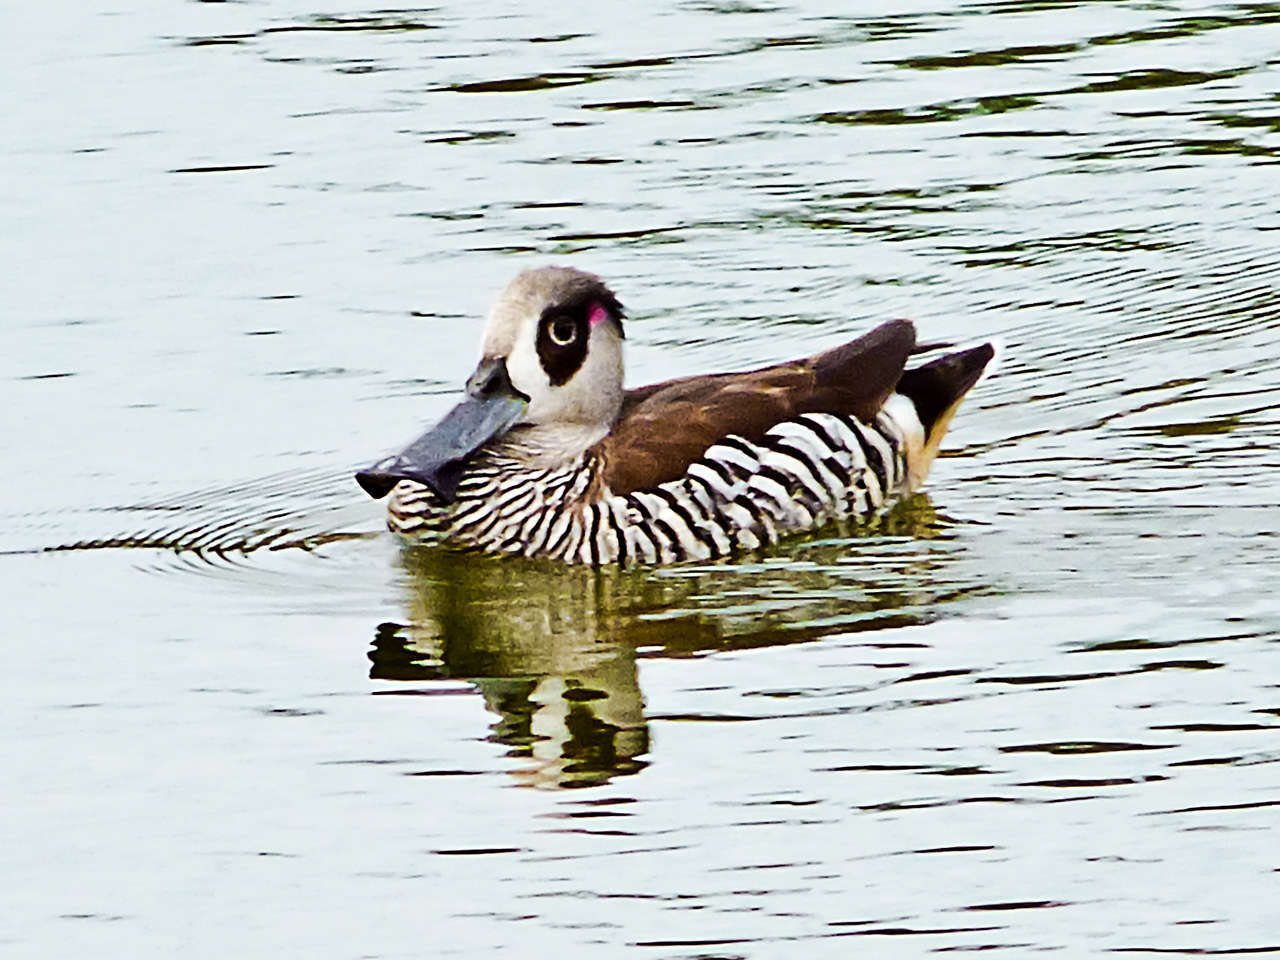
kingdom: Animalia
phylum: Chordata
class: Aves
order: Anseriformes
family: Anatidae
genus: Malacorhynchus
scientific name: Malacorhynchus membranaceus
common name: Pink-eared duck
